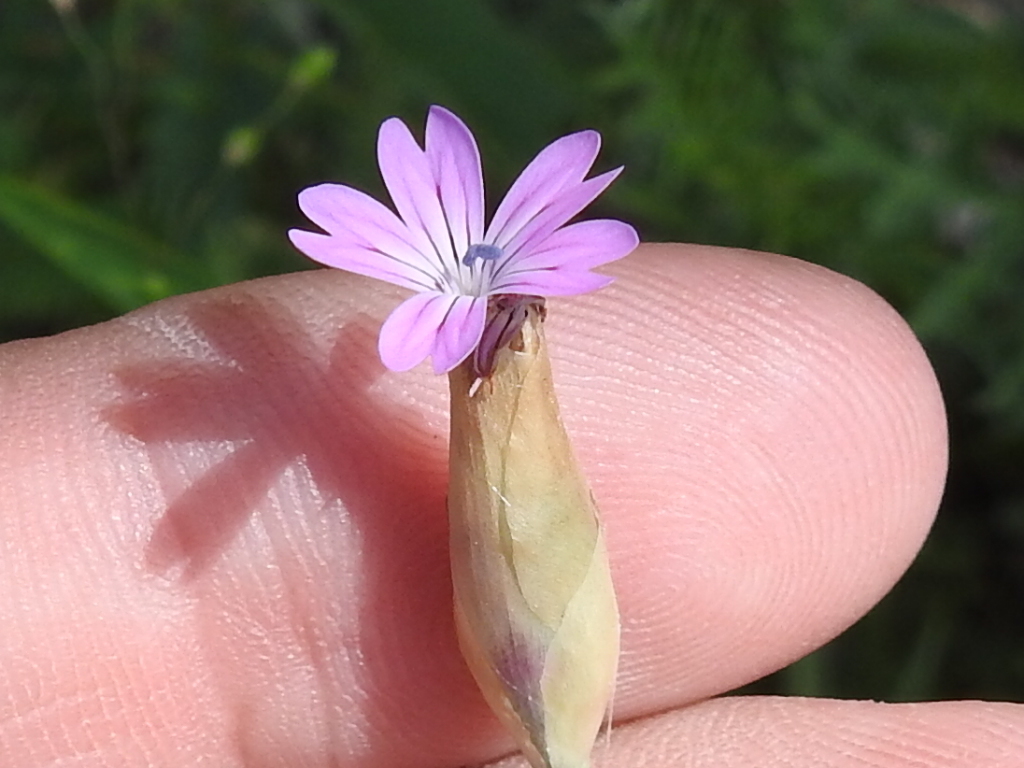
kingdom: Plantae
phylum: Tracheophyta
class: Magnoliopsida
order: Caryophyllales
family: Caryophyllaceae
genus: Petrorhagia
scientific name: Petrorhagia dubia
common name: Hairypink
